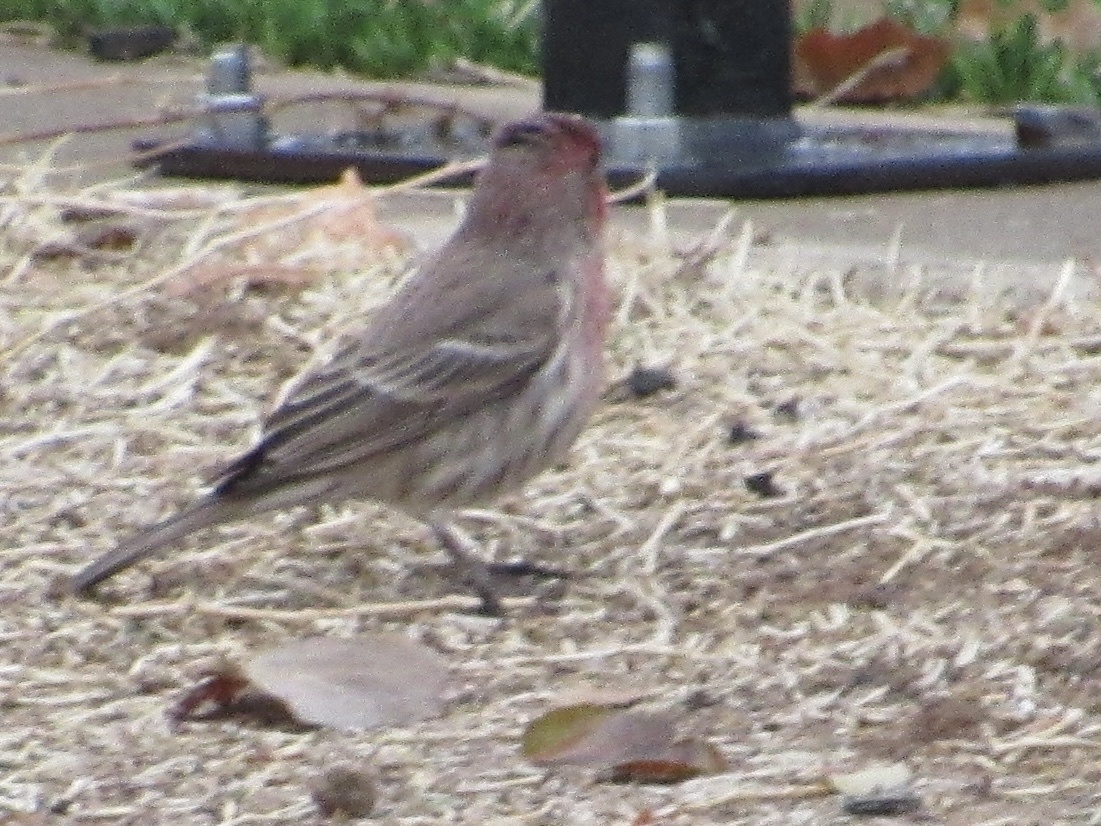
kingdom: Animalia
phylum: Chordata
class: Aves
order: Passeriformes
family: Fringillidae
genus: Haemorhous
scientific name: Haemorhous mexicanus
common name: House finch
